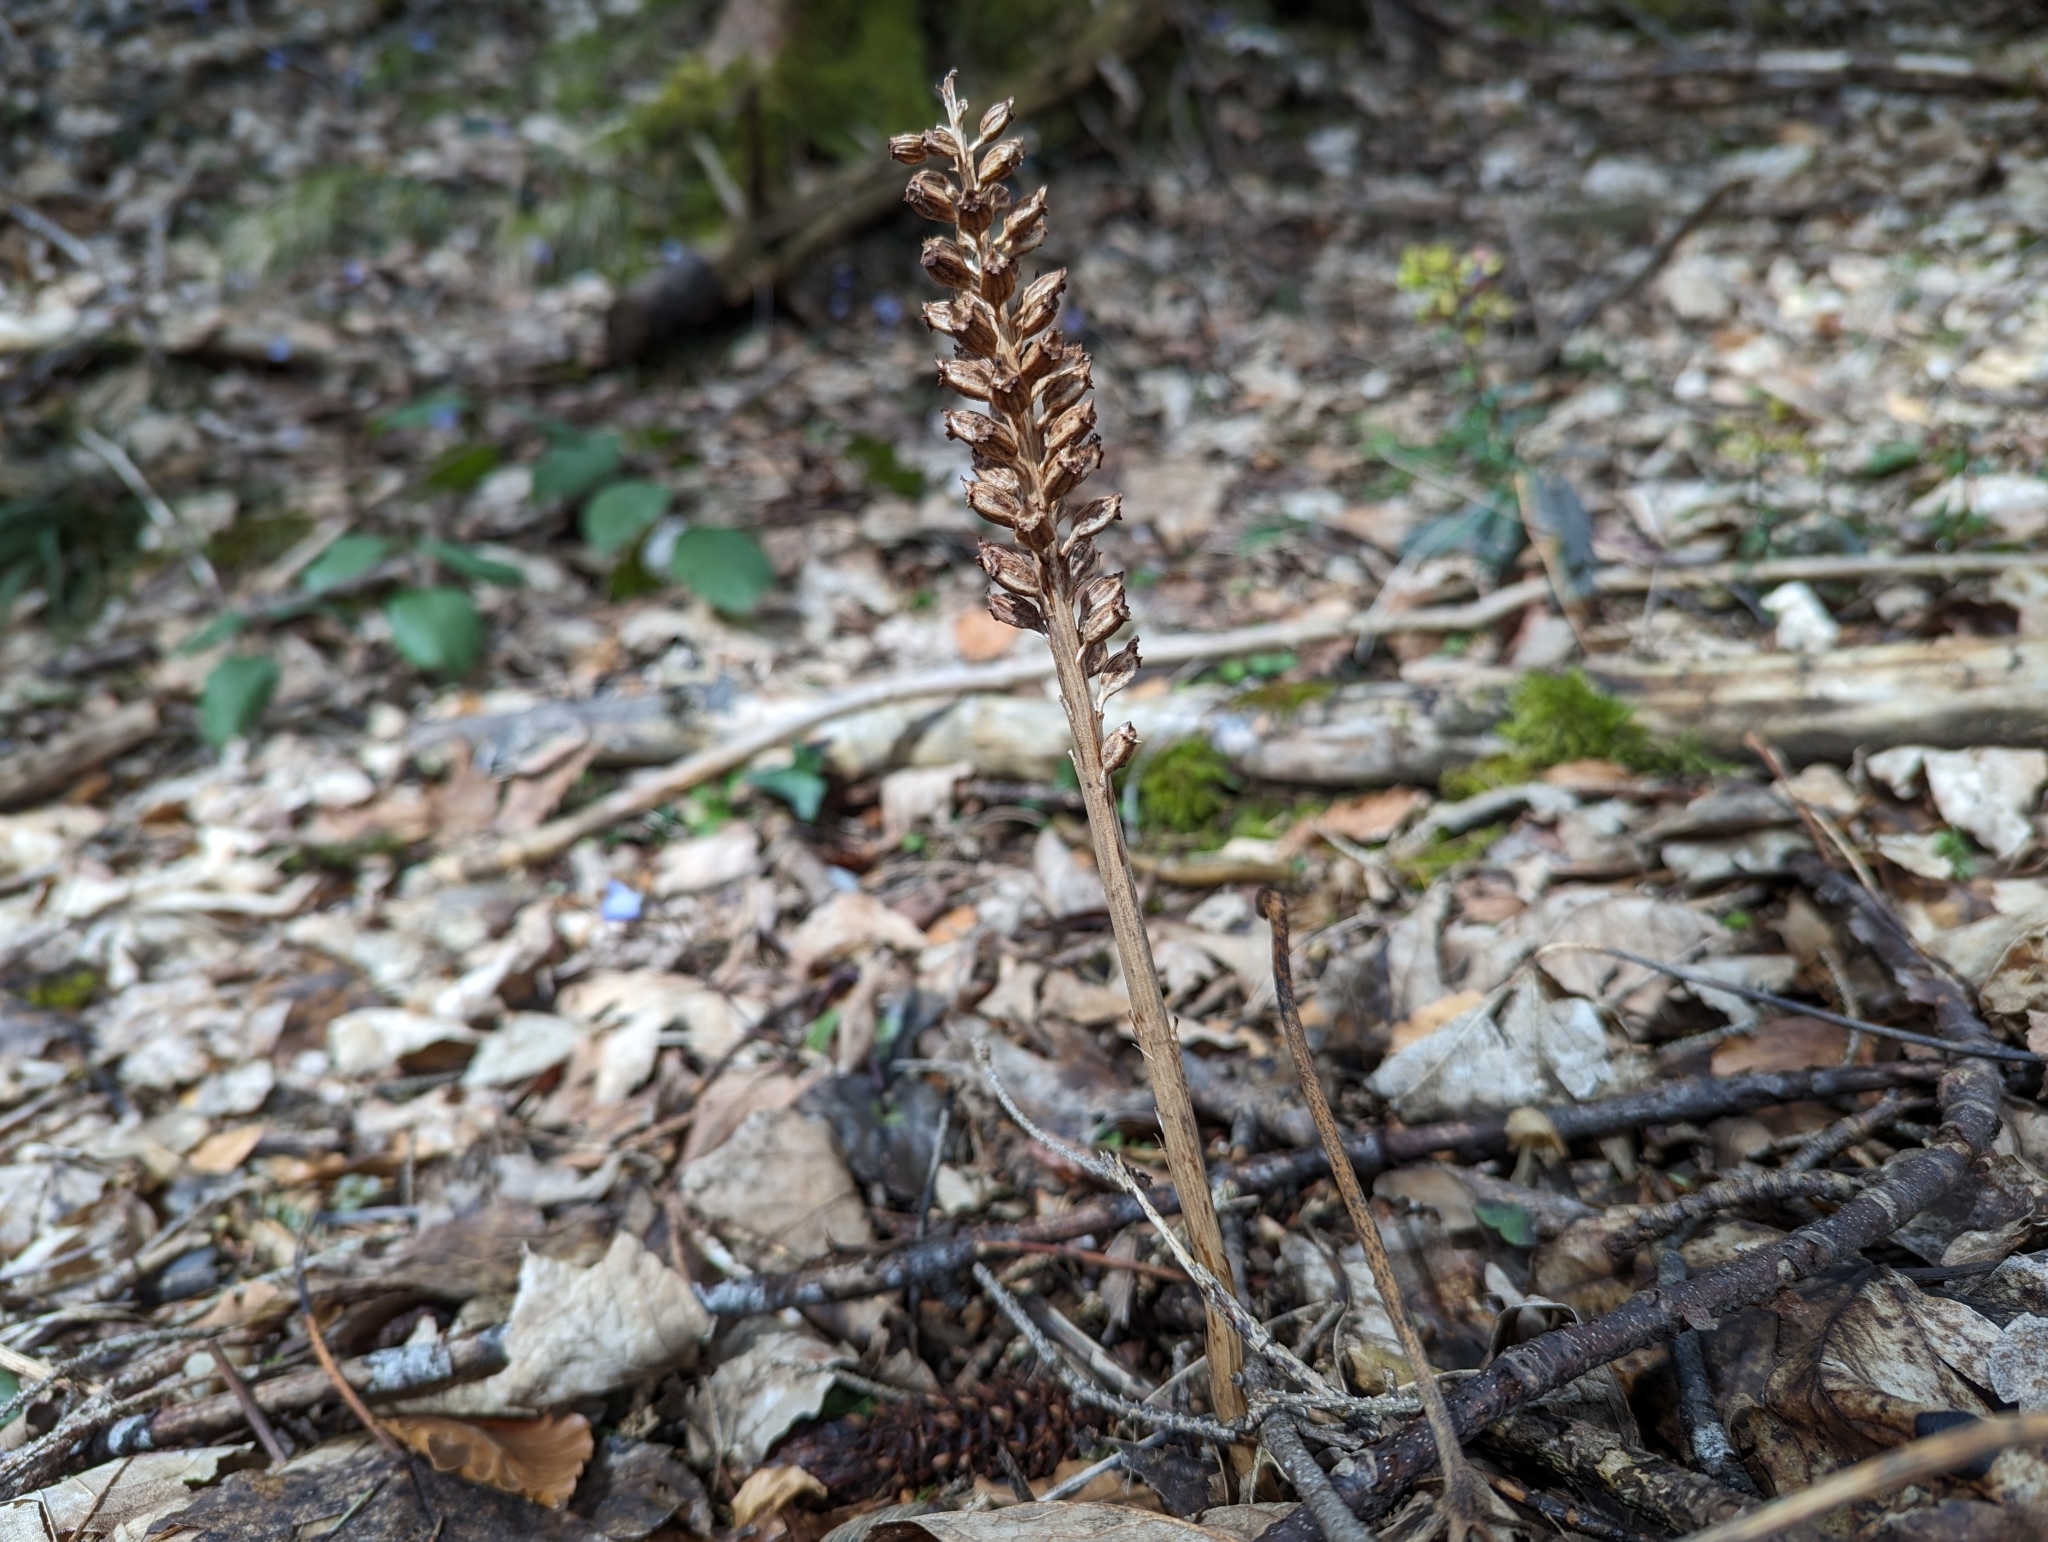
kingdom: Plantae
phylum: Tracheophyta
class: Liliopsida
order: Asparagales
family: Orchidaceae
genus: Neottia
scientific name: Neottia nidus-avis
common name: Bird's-nest orchid
